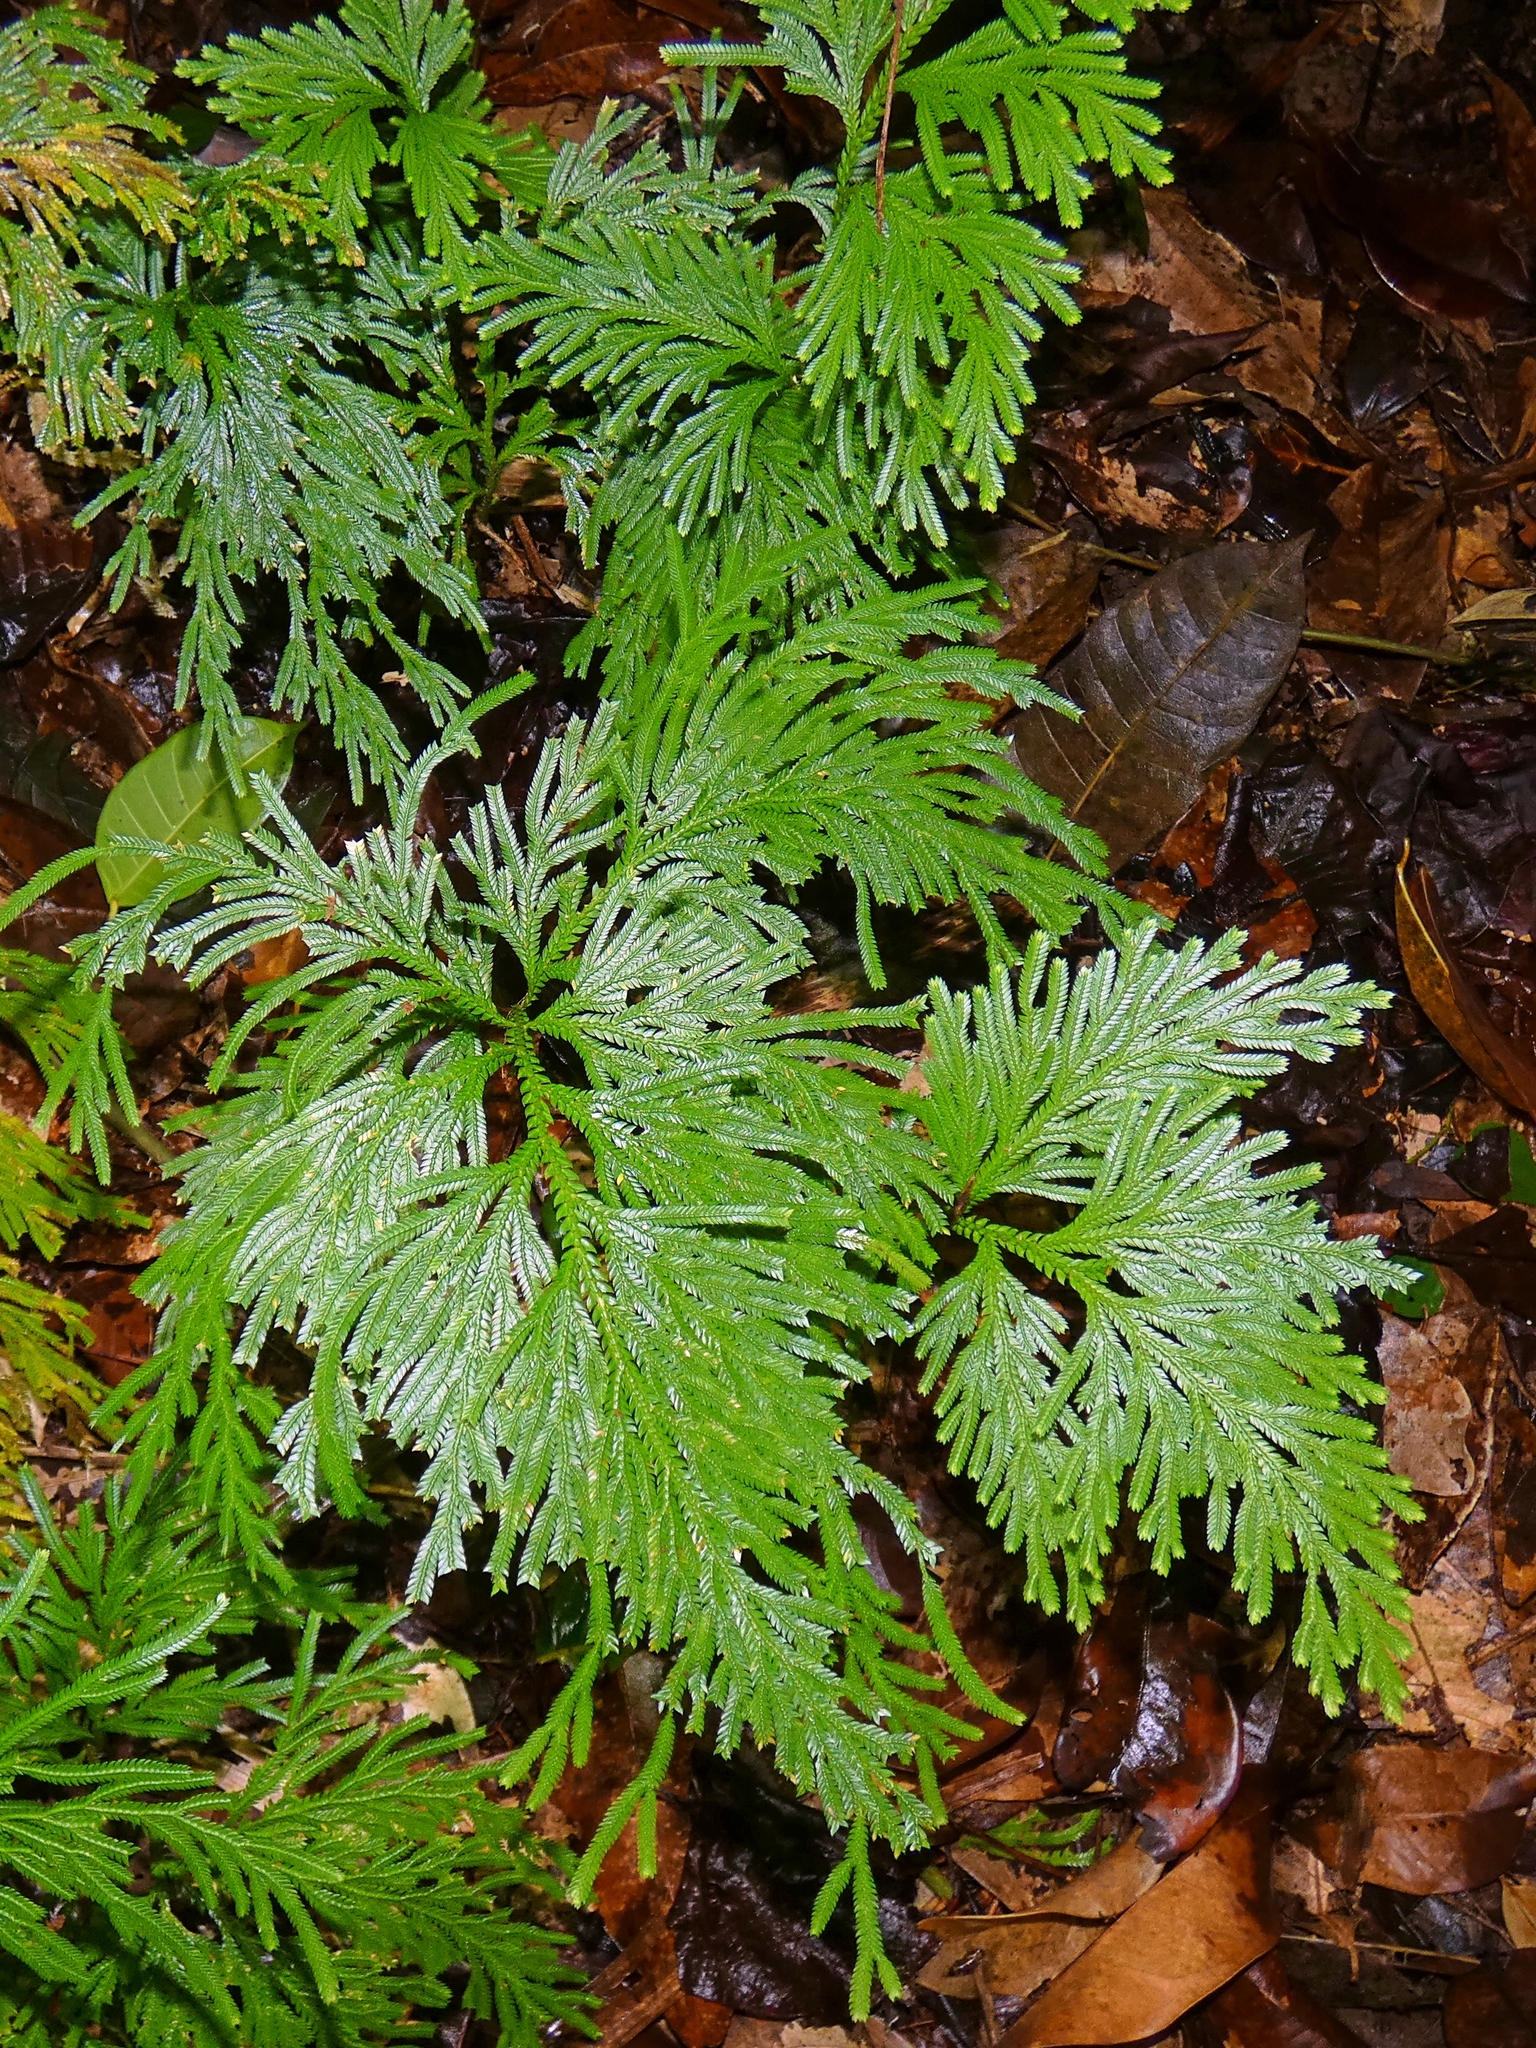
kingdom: Plantae
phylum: Tracheophyta
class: Lycopodiopsida
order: Selaginellales
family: Selaginellaceae
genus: Selaginella
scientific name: Selaginella longipinna
